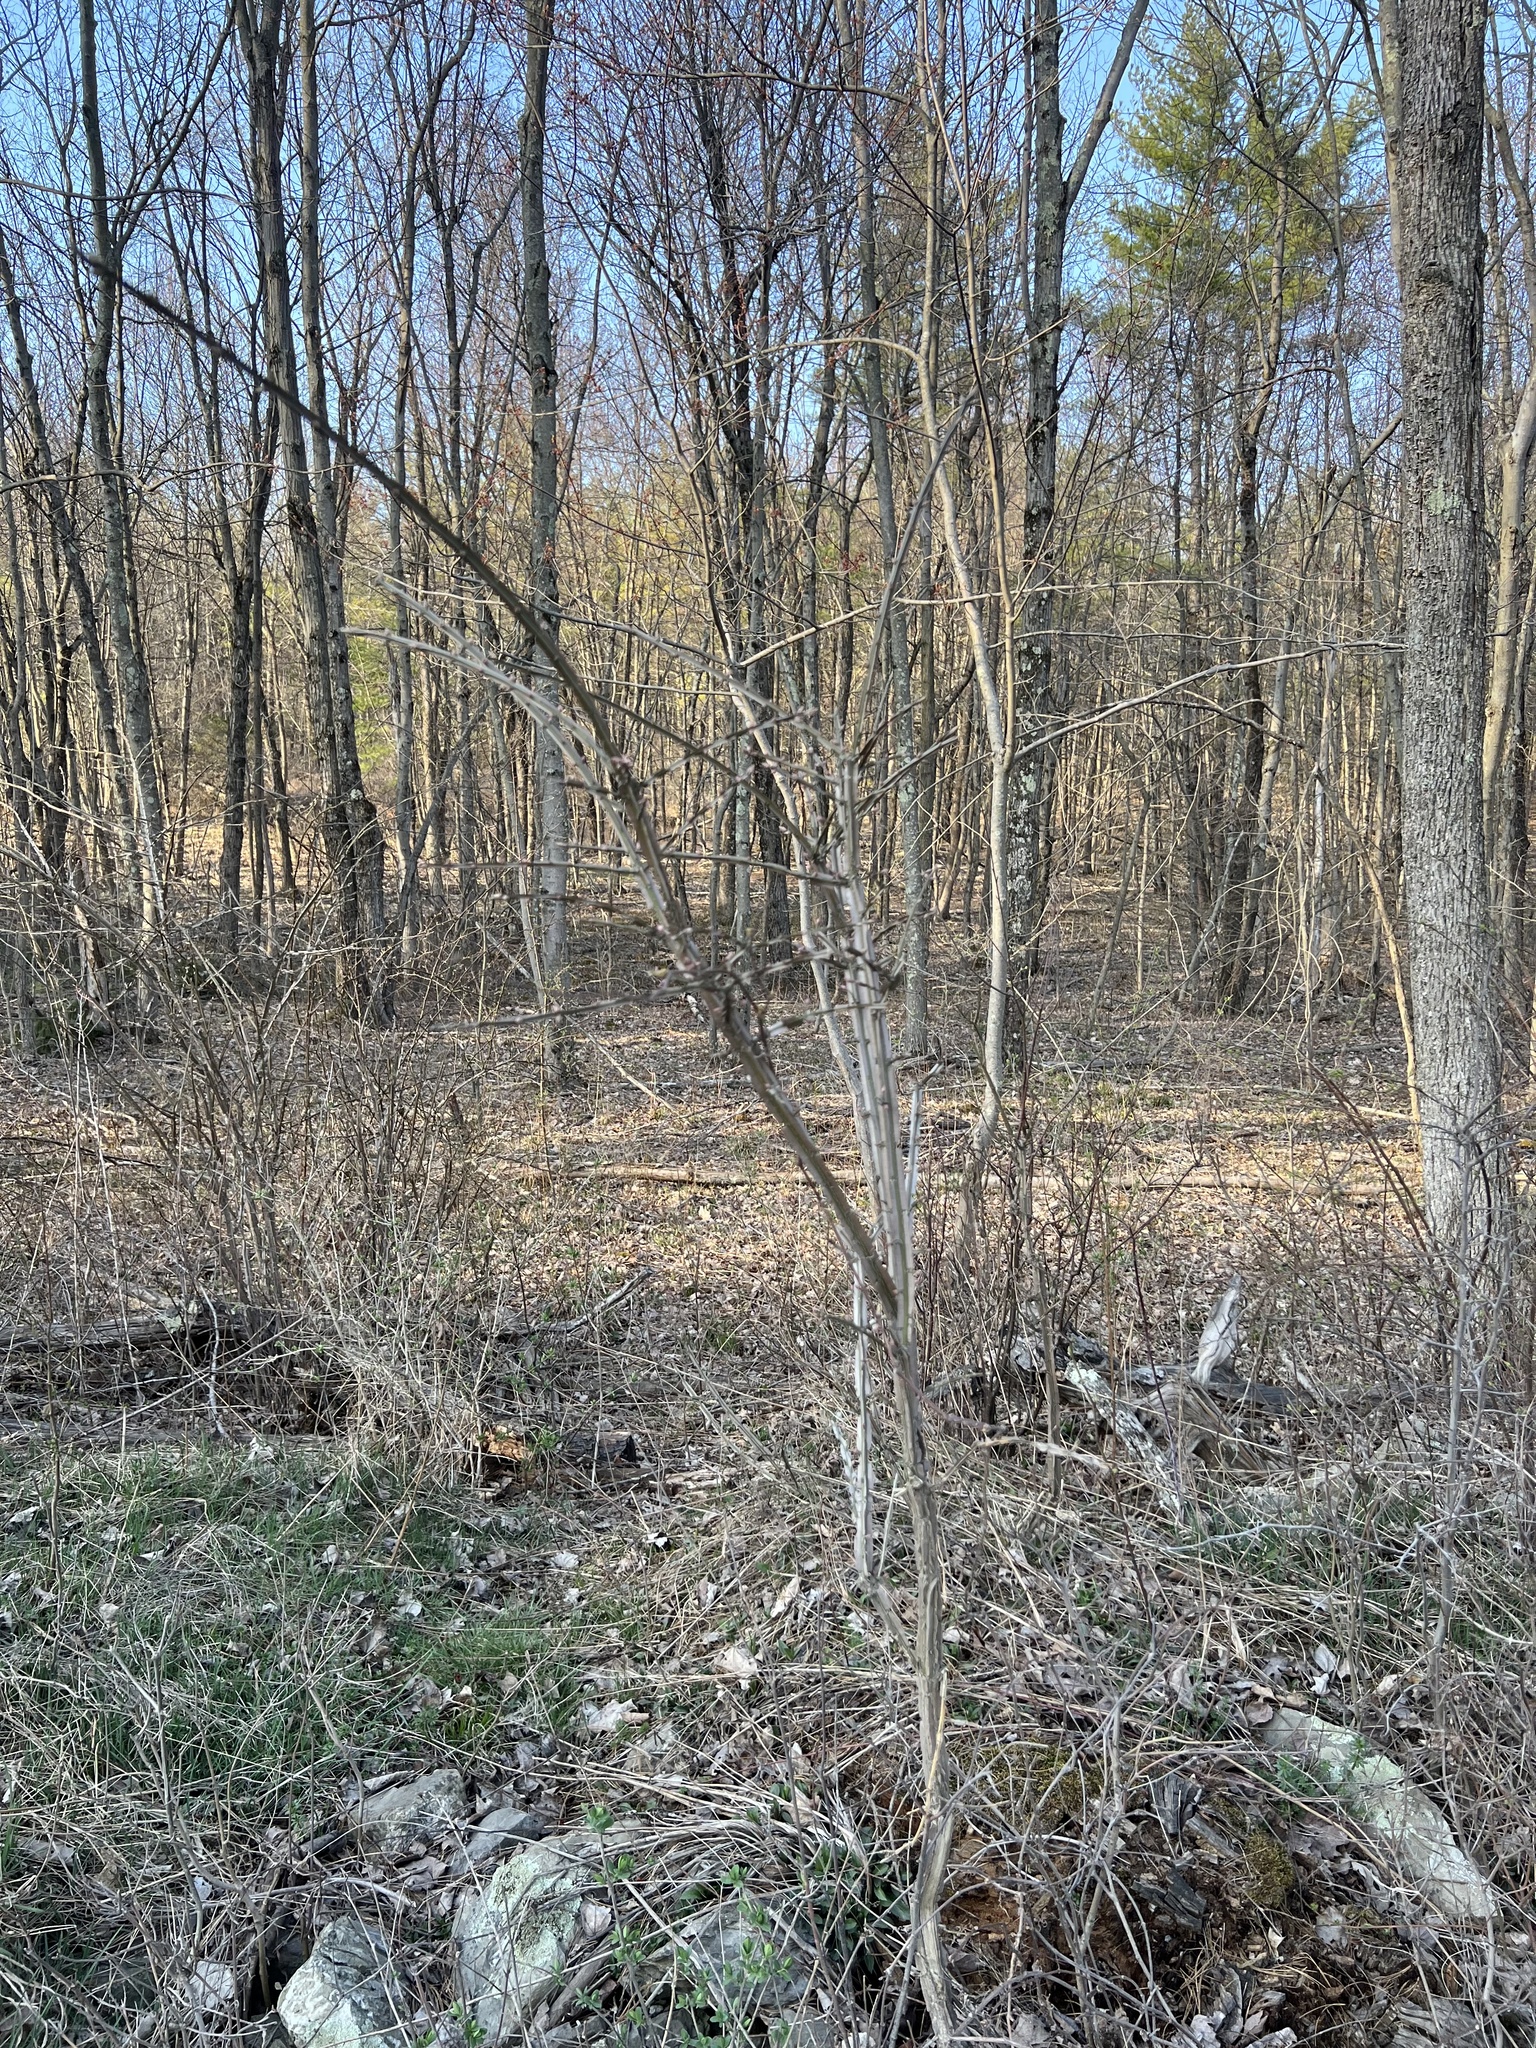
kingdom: Plantae
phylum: Tracheophyta
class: Magnoliopsida
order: Celastrales
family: Celastraceae
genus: Euonymus
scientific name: Euonymus alatus
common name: Winged euonymus
